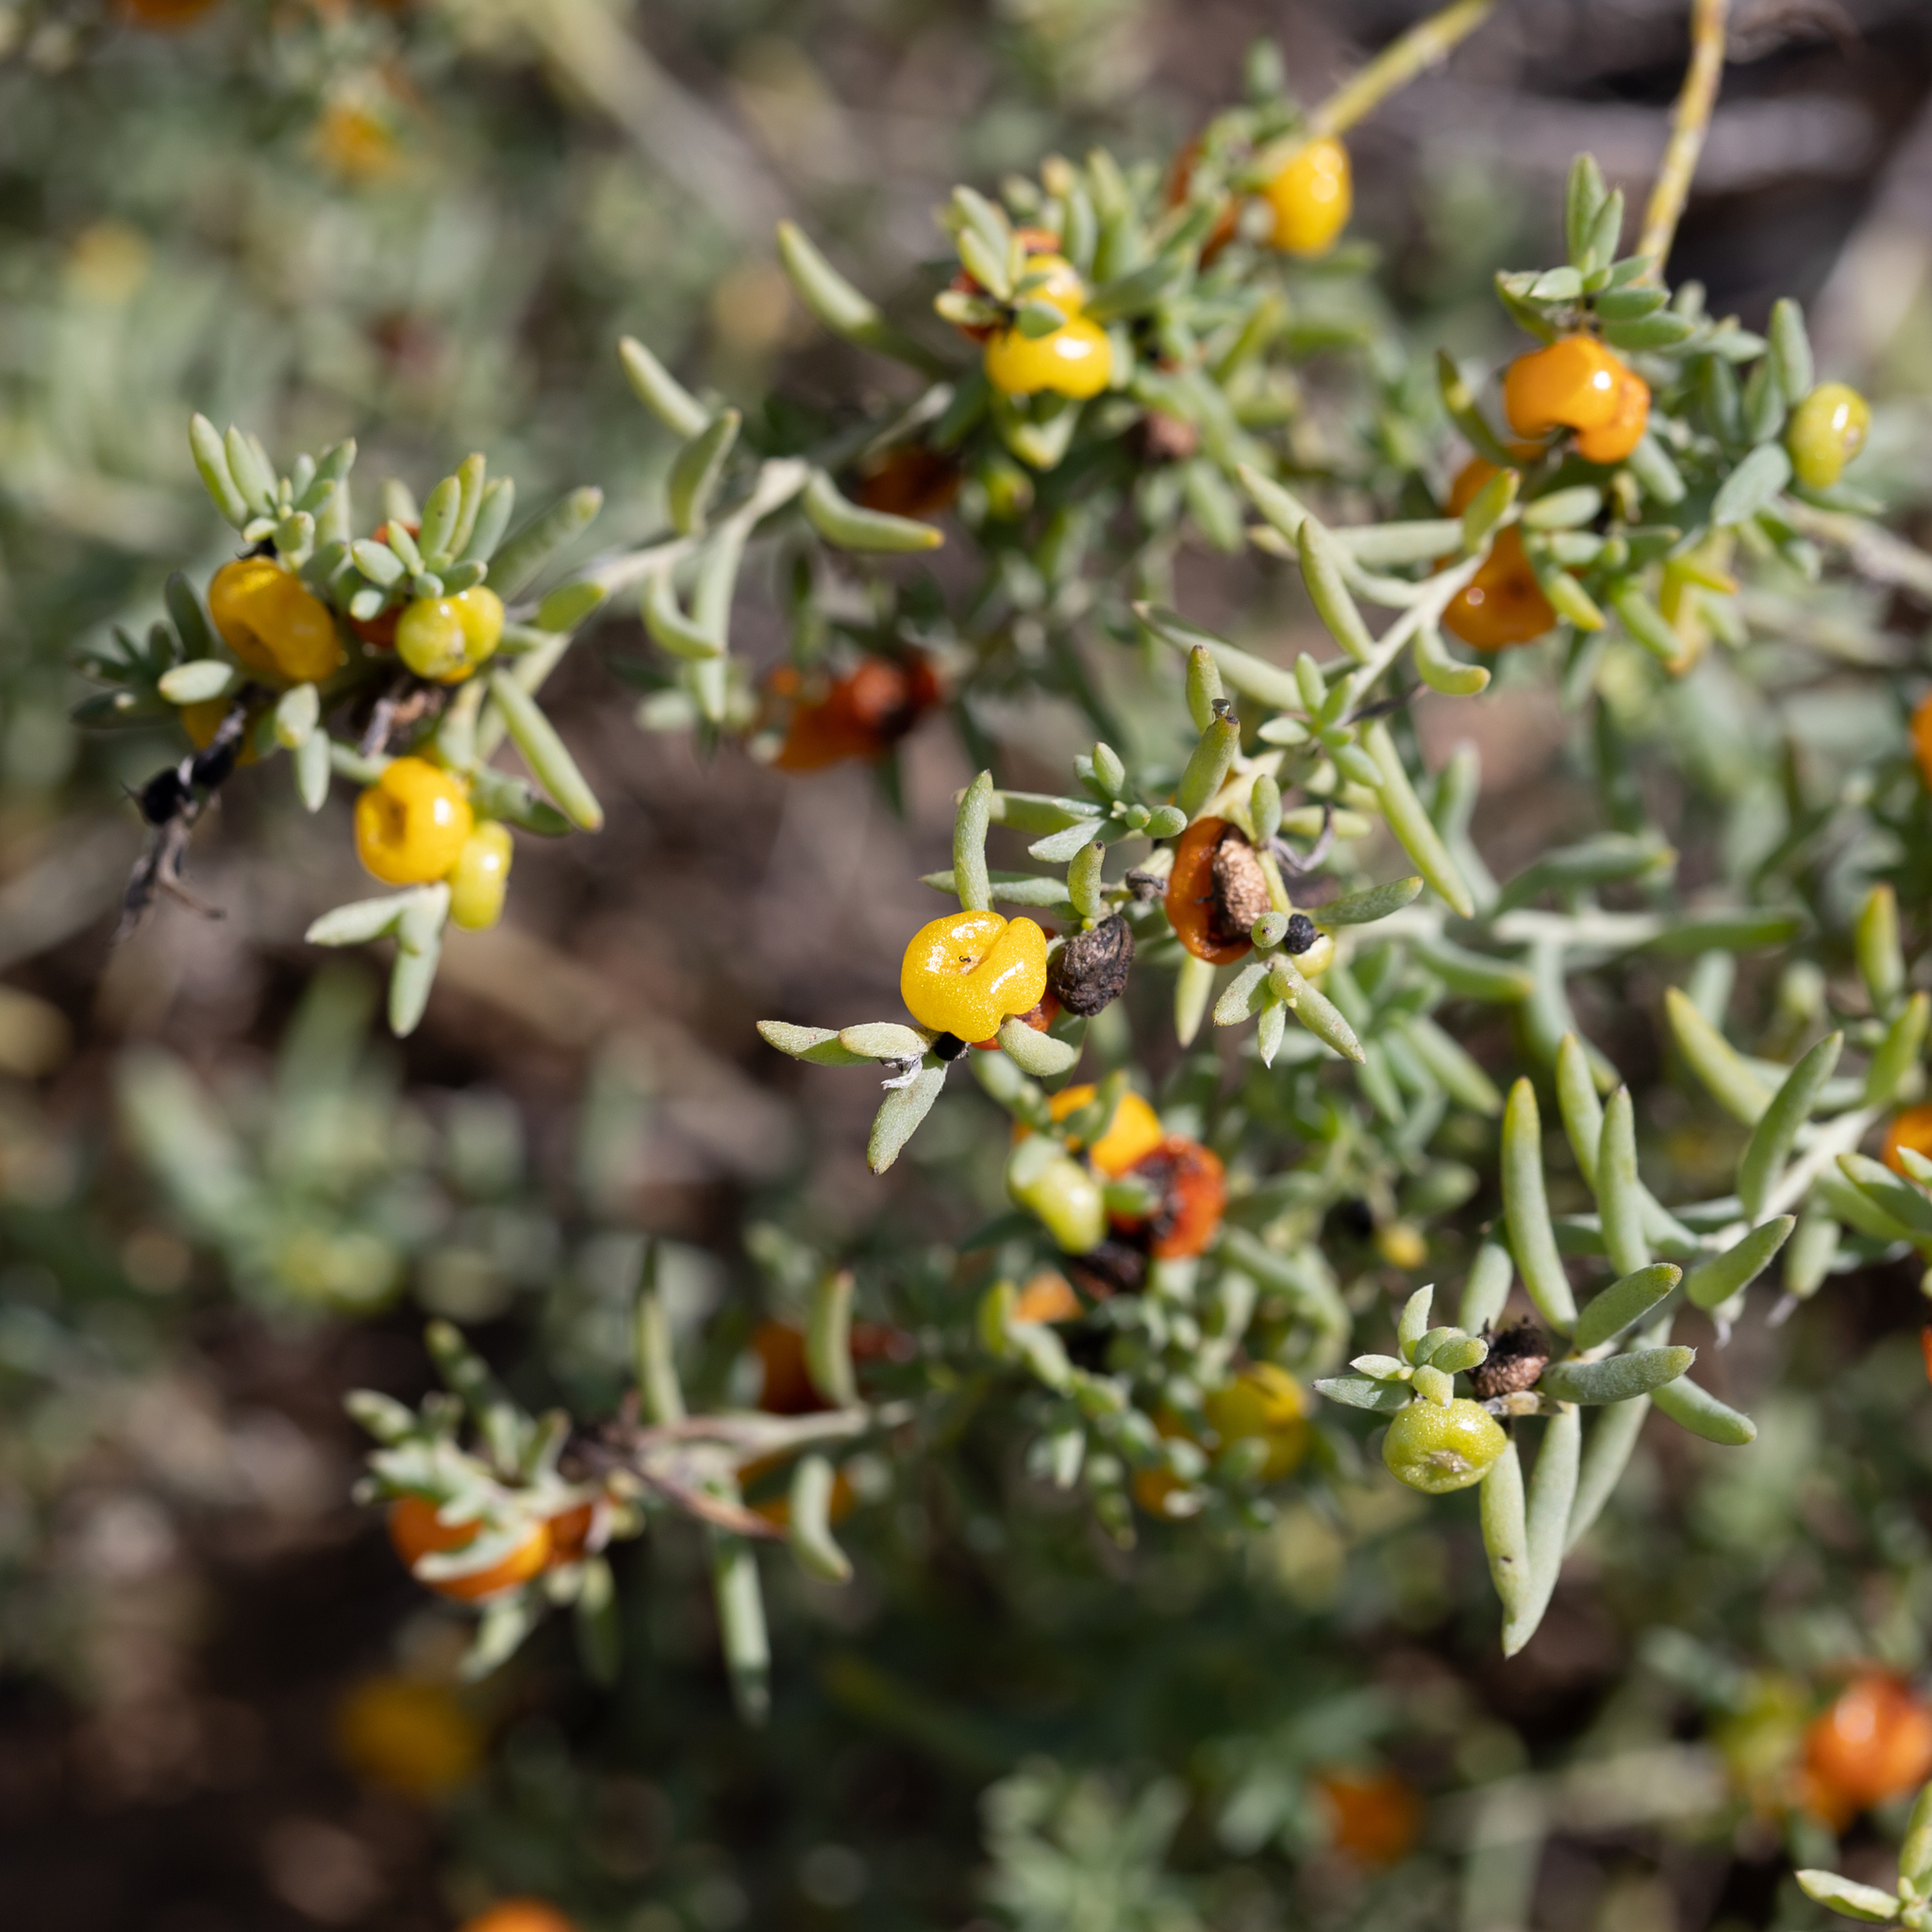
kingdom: Plantae
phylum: Tracheophyta
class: Magnoliopsida
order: Caryophyllales
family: Amaranthaceae
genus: Enchylaena
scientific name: Enchylaena tomentosa
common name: Ruby saltbush
